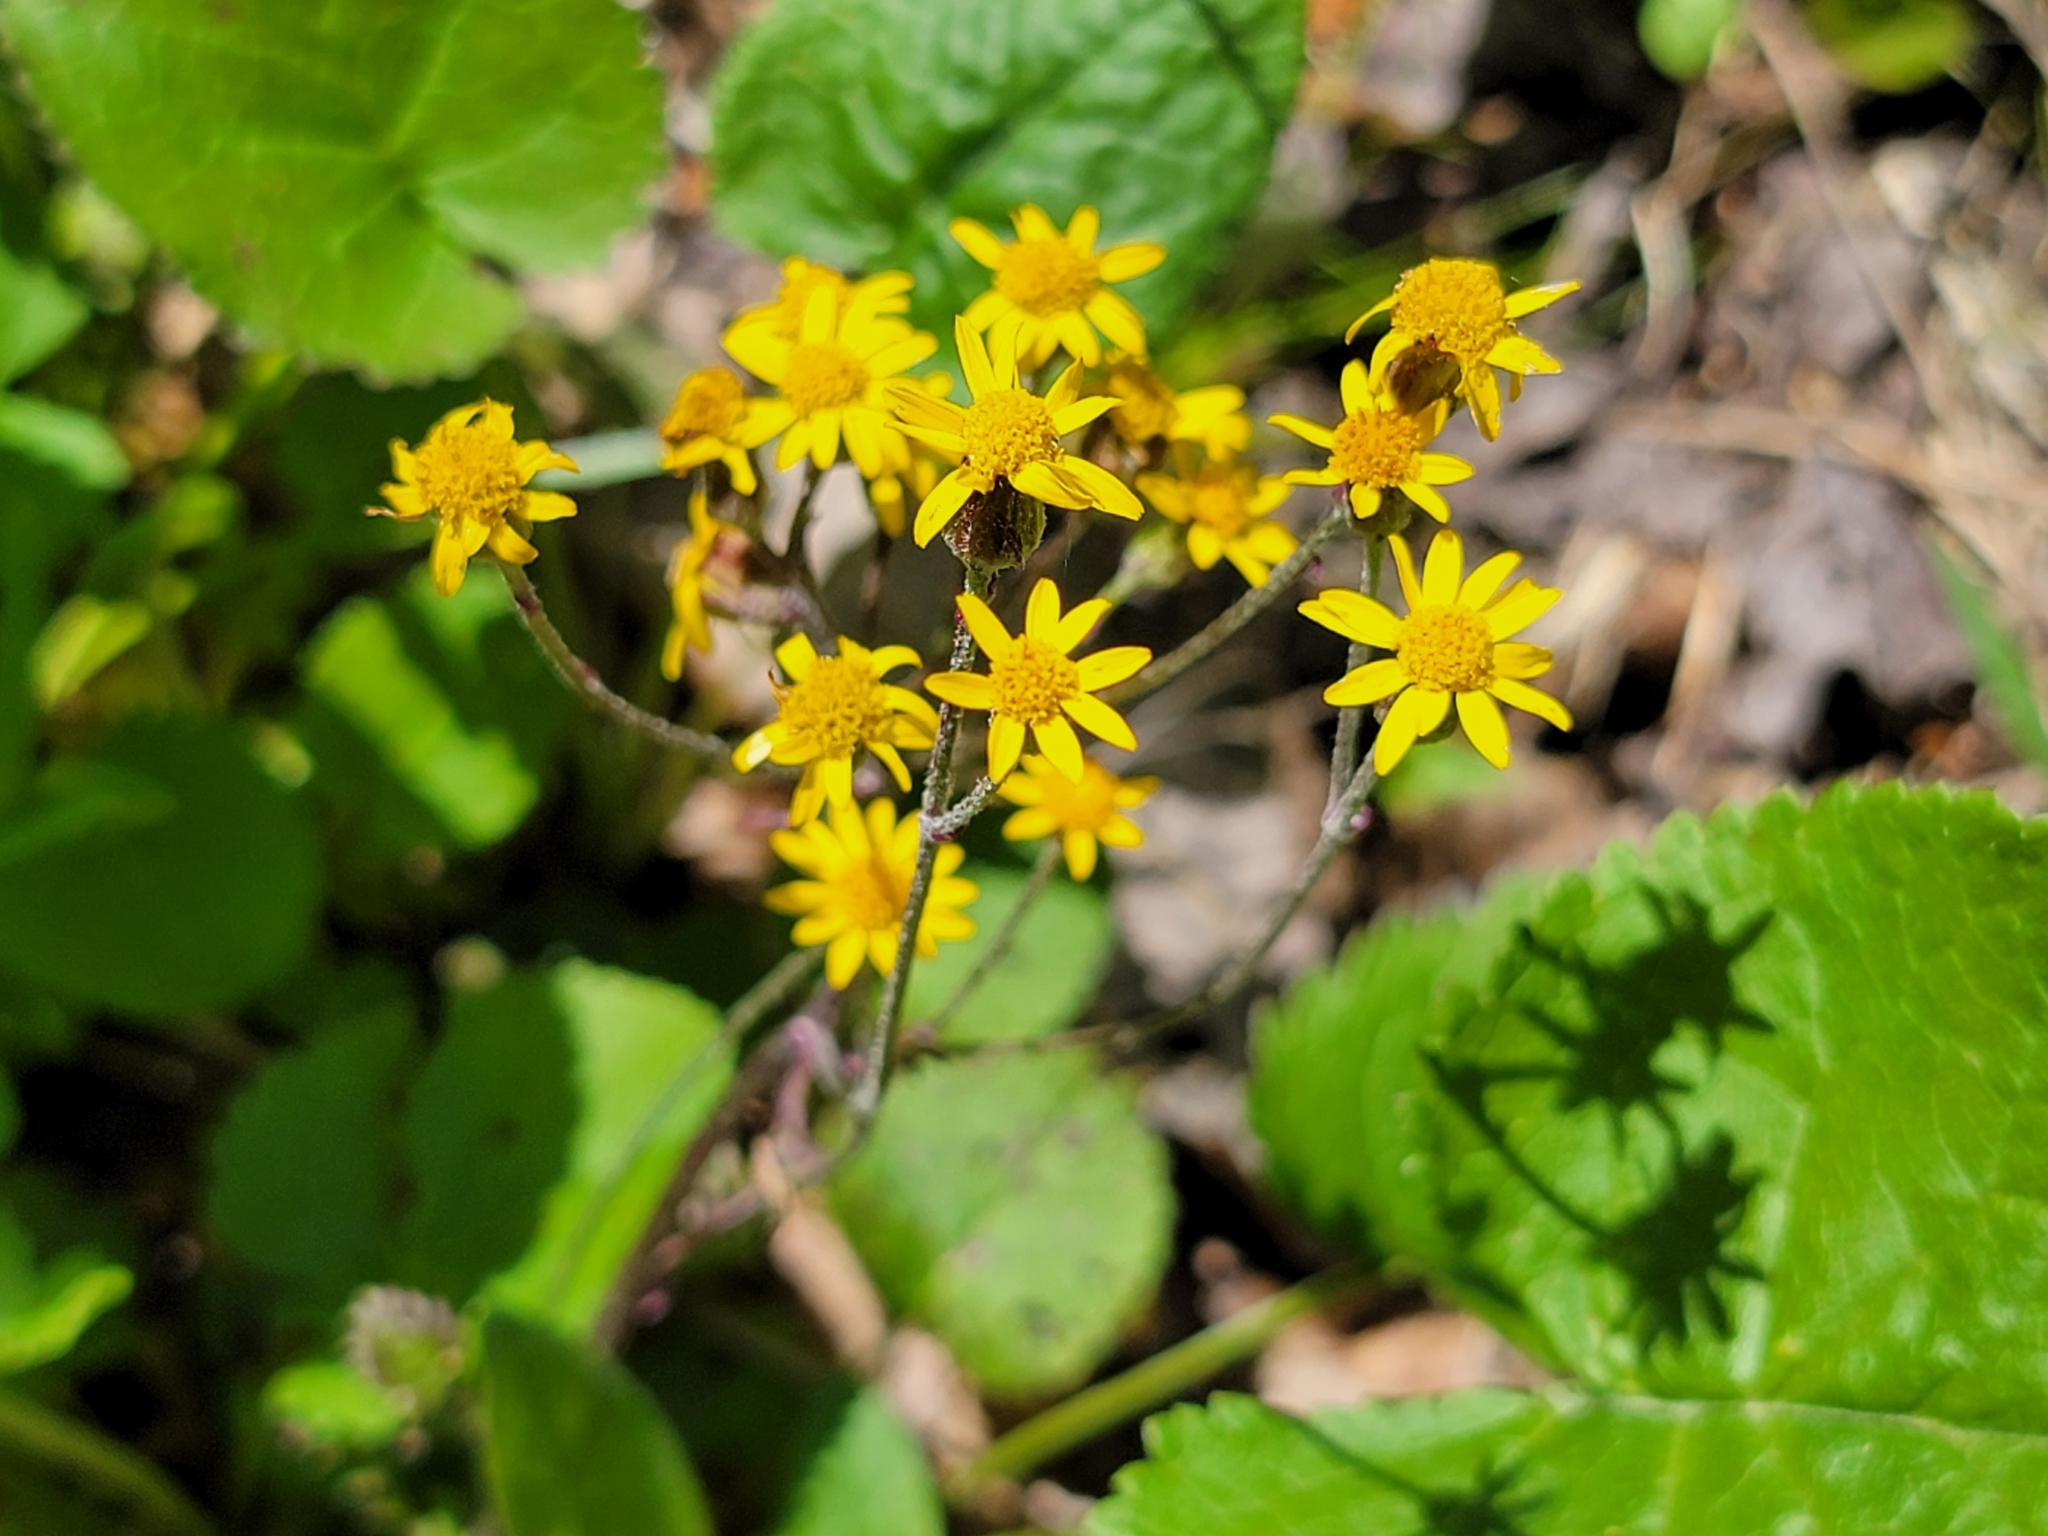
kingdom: Plantae
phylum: Tracheophyta
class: Magnoliopsida
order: Asterales
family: Asteraceae
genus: Packera
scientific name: Packera aurea
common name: Golden groundsel
